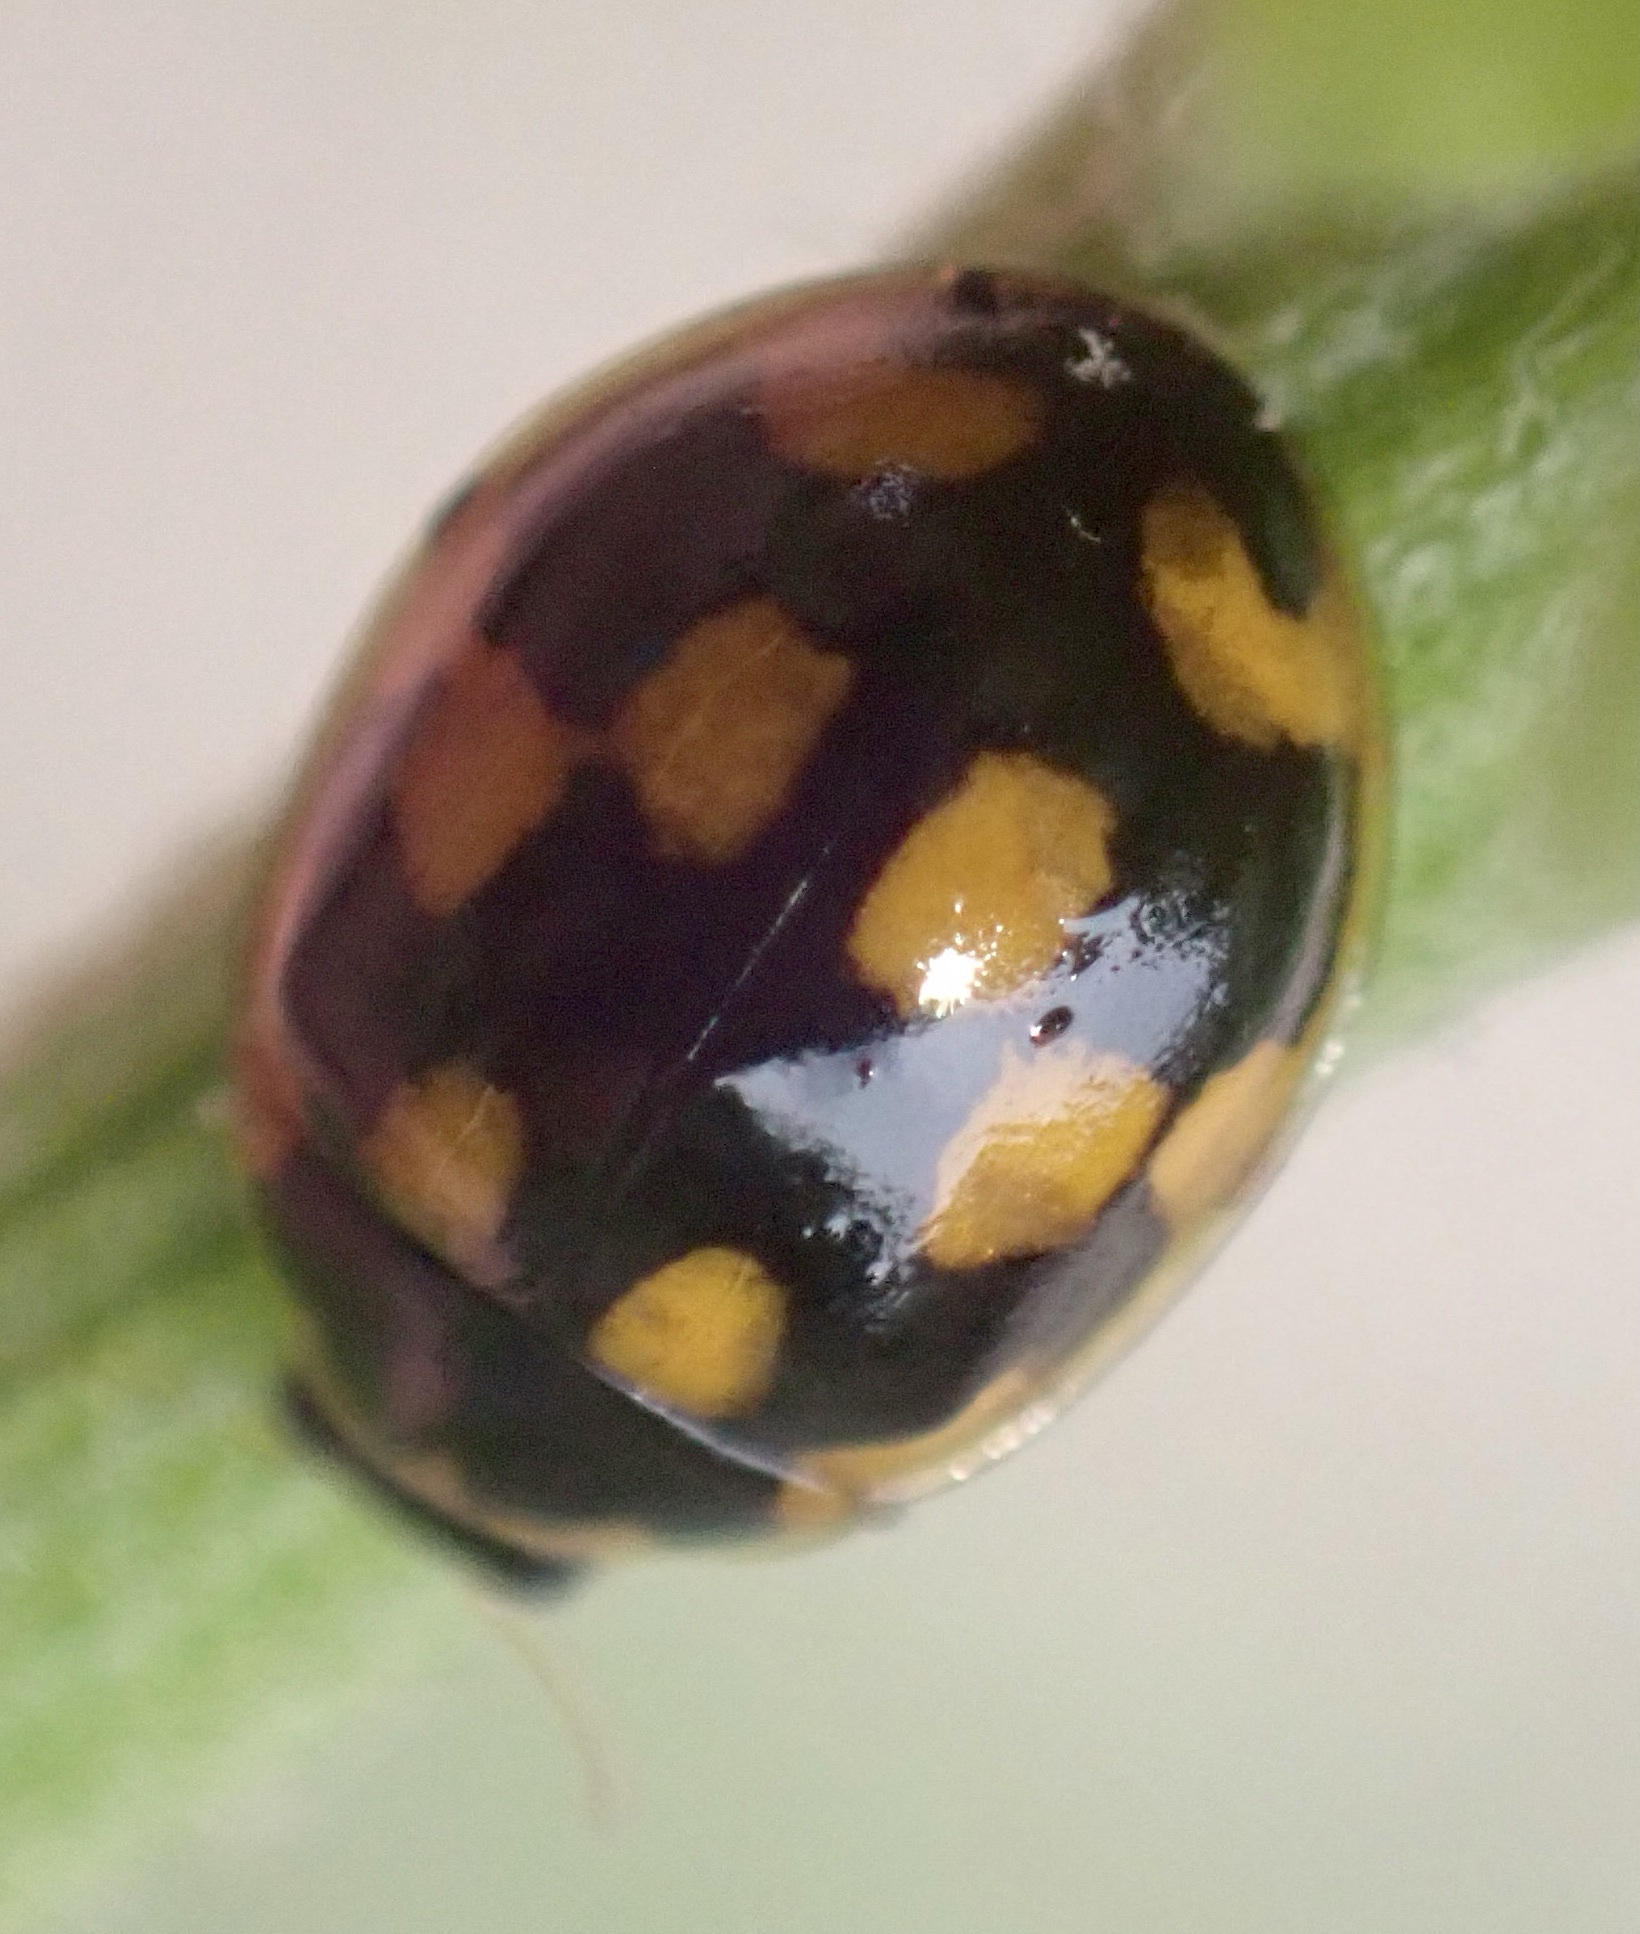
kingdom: Animalia
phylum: Arthropoda
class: Insecta
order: Coleoptera
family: Coccinellidae
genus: Propylaea
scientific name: Propylaea quatuordecimpunctata
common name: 14-spotted ladybird beetle
